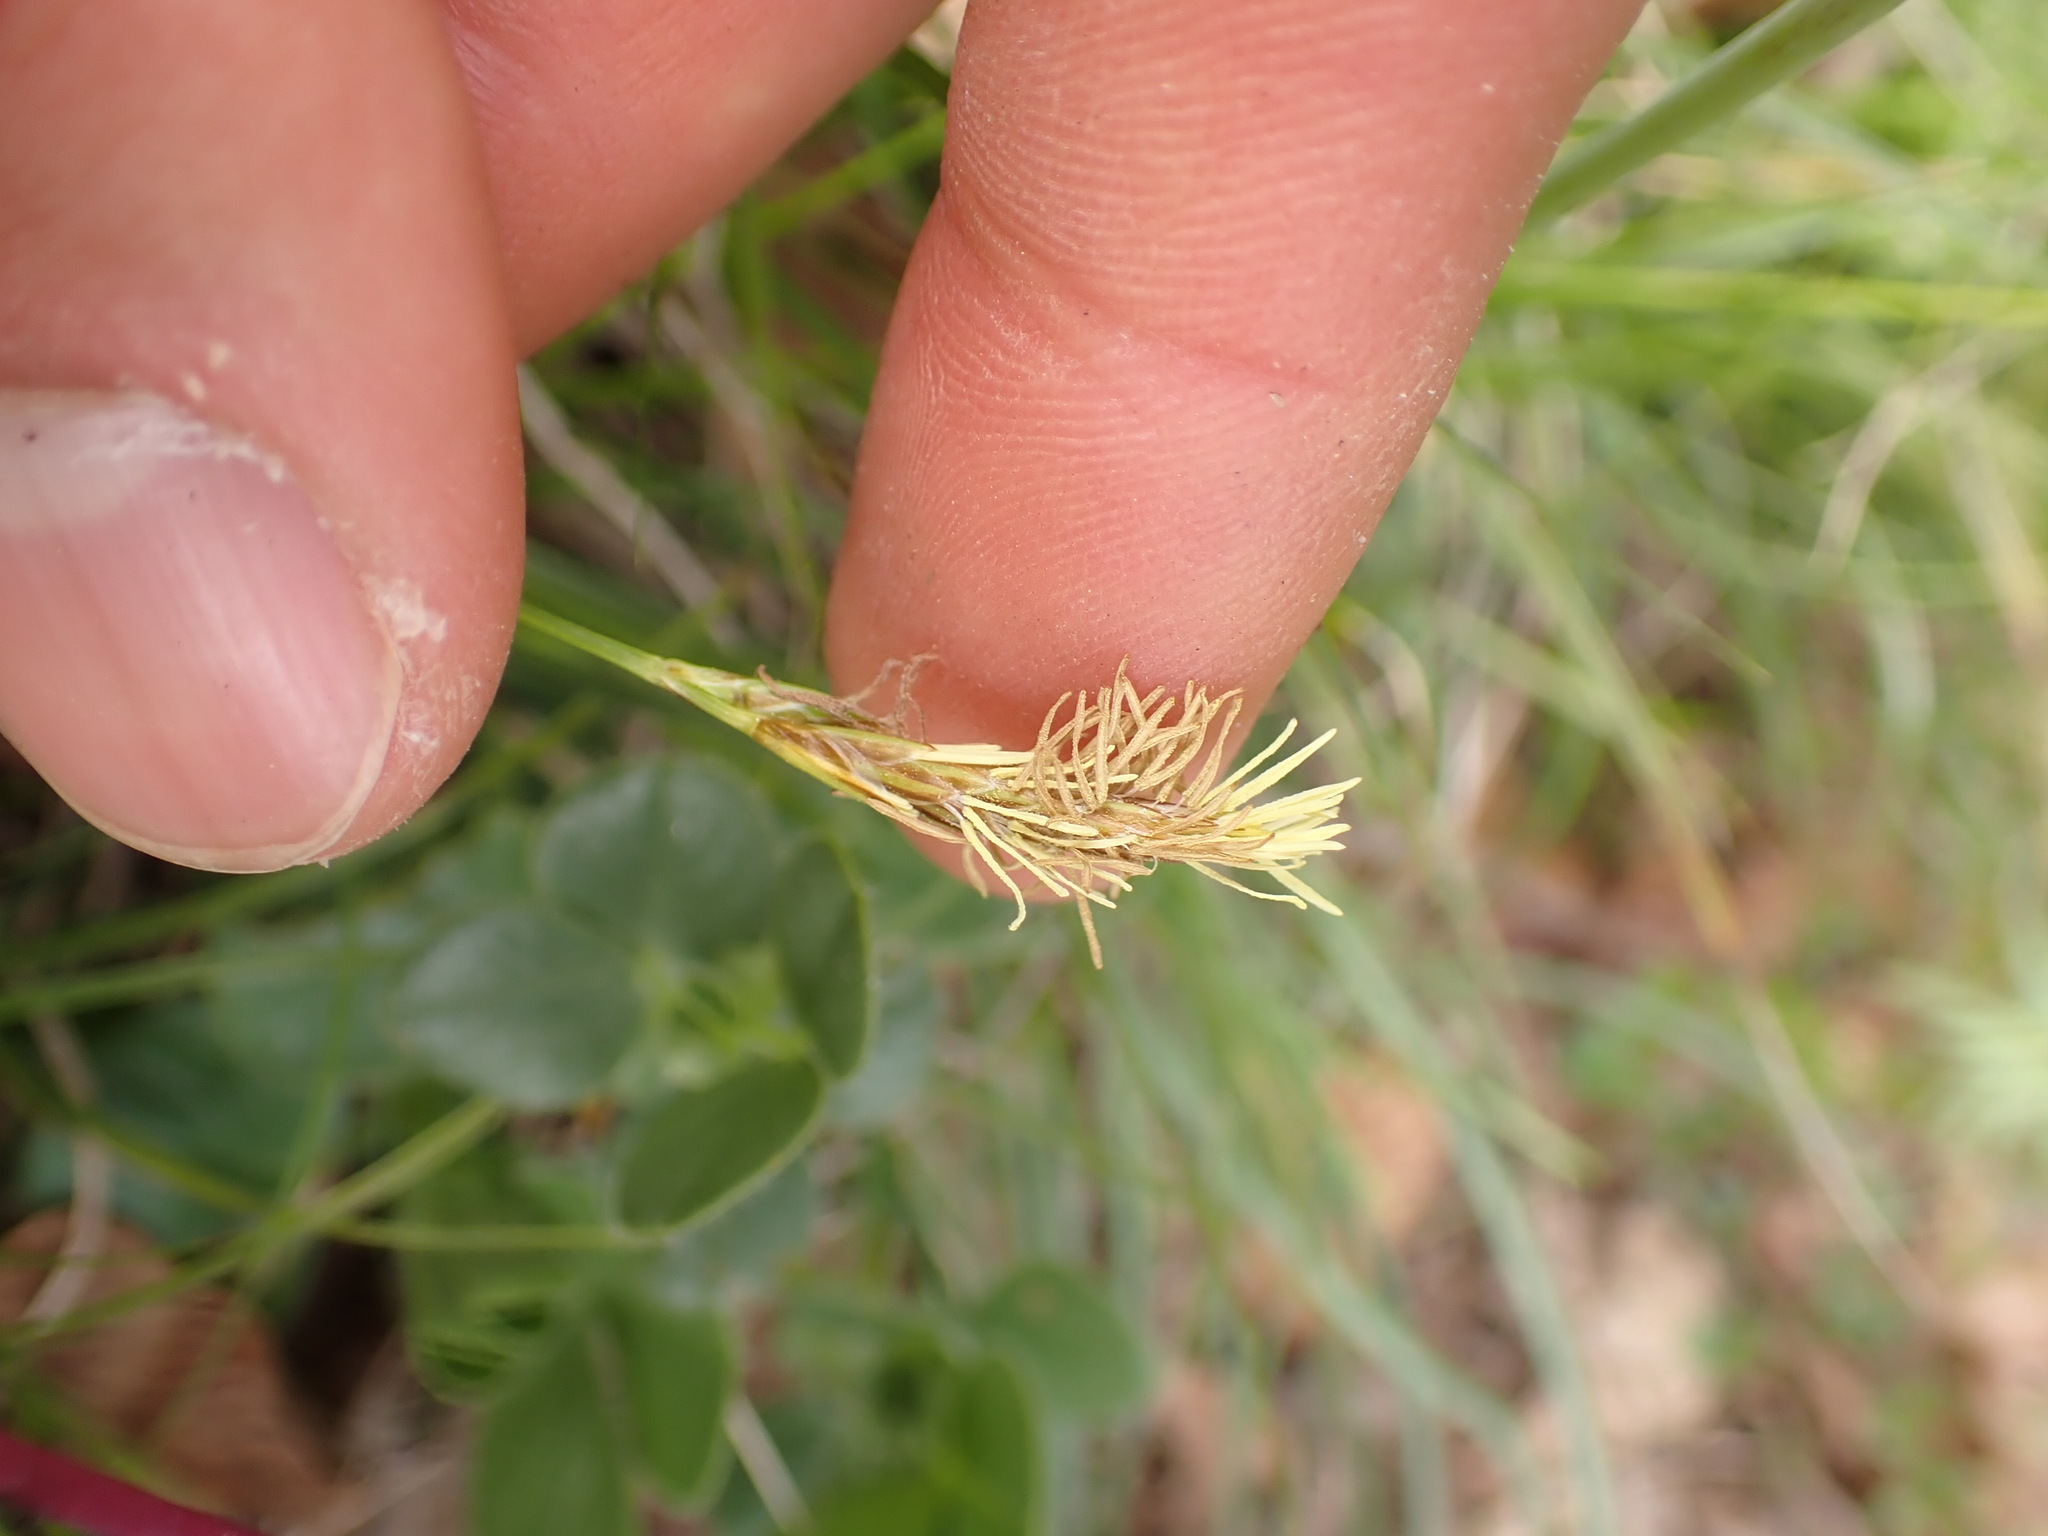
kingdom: Plantae
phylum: Tracheophyta
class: Liliopsida
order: Poales
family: Cyperaceae
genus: Carex
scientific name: Carex halleriana
